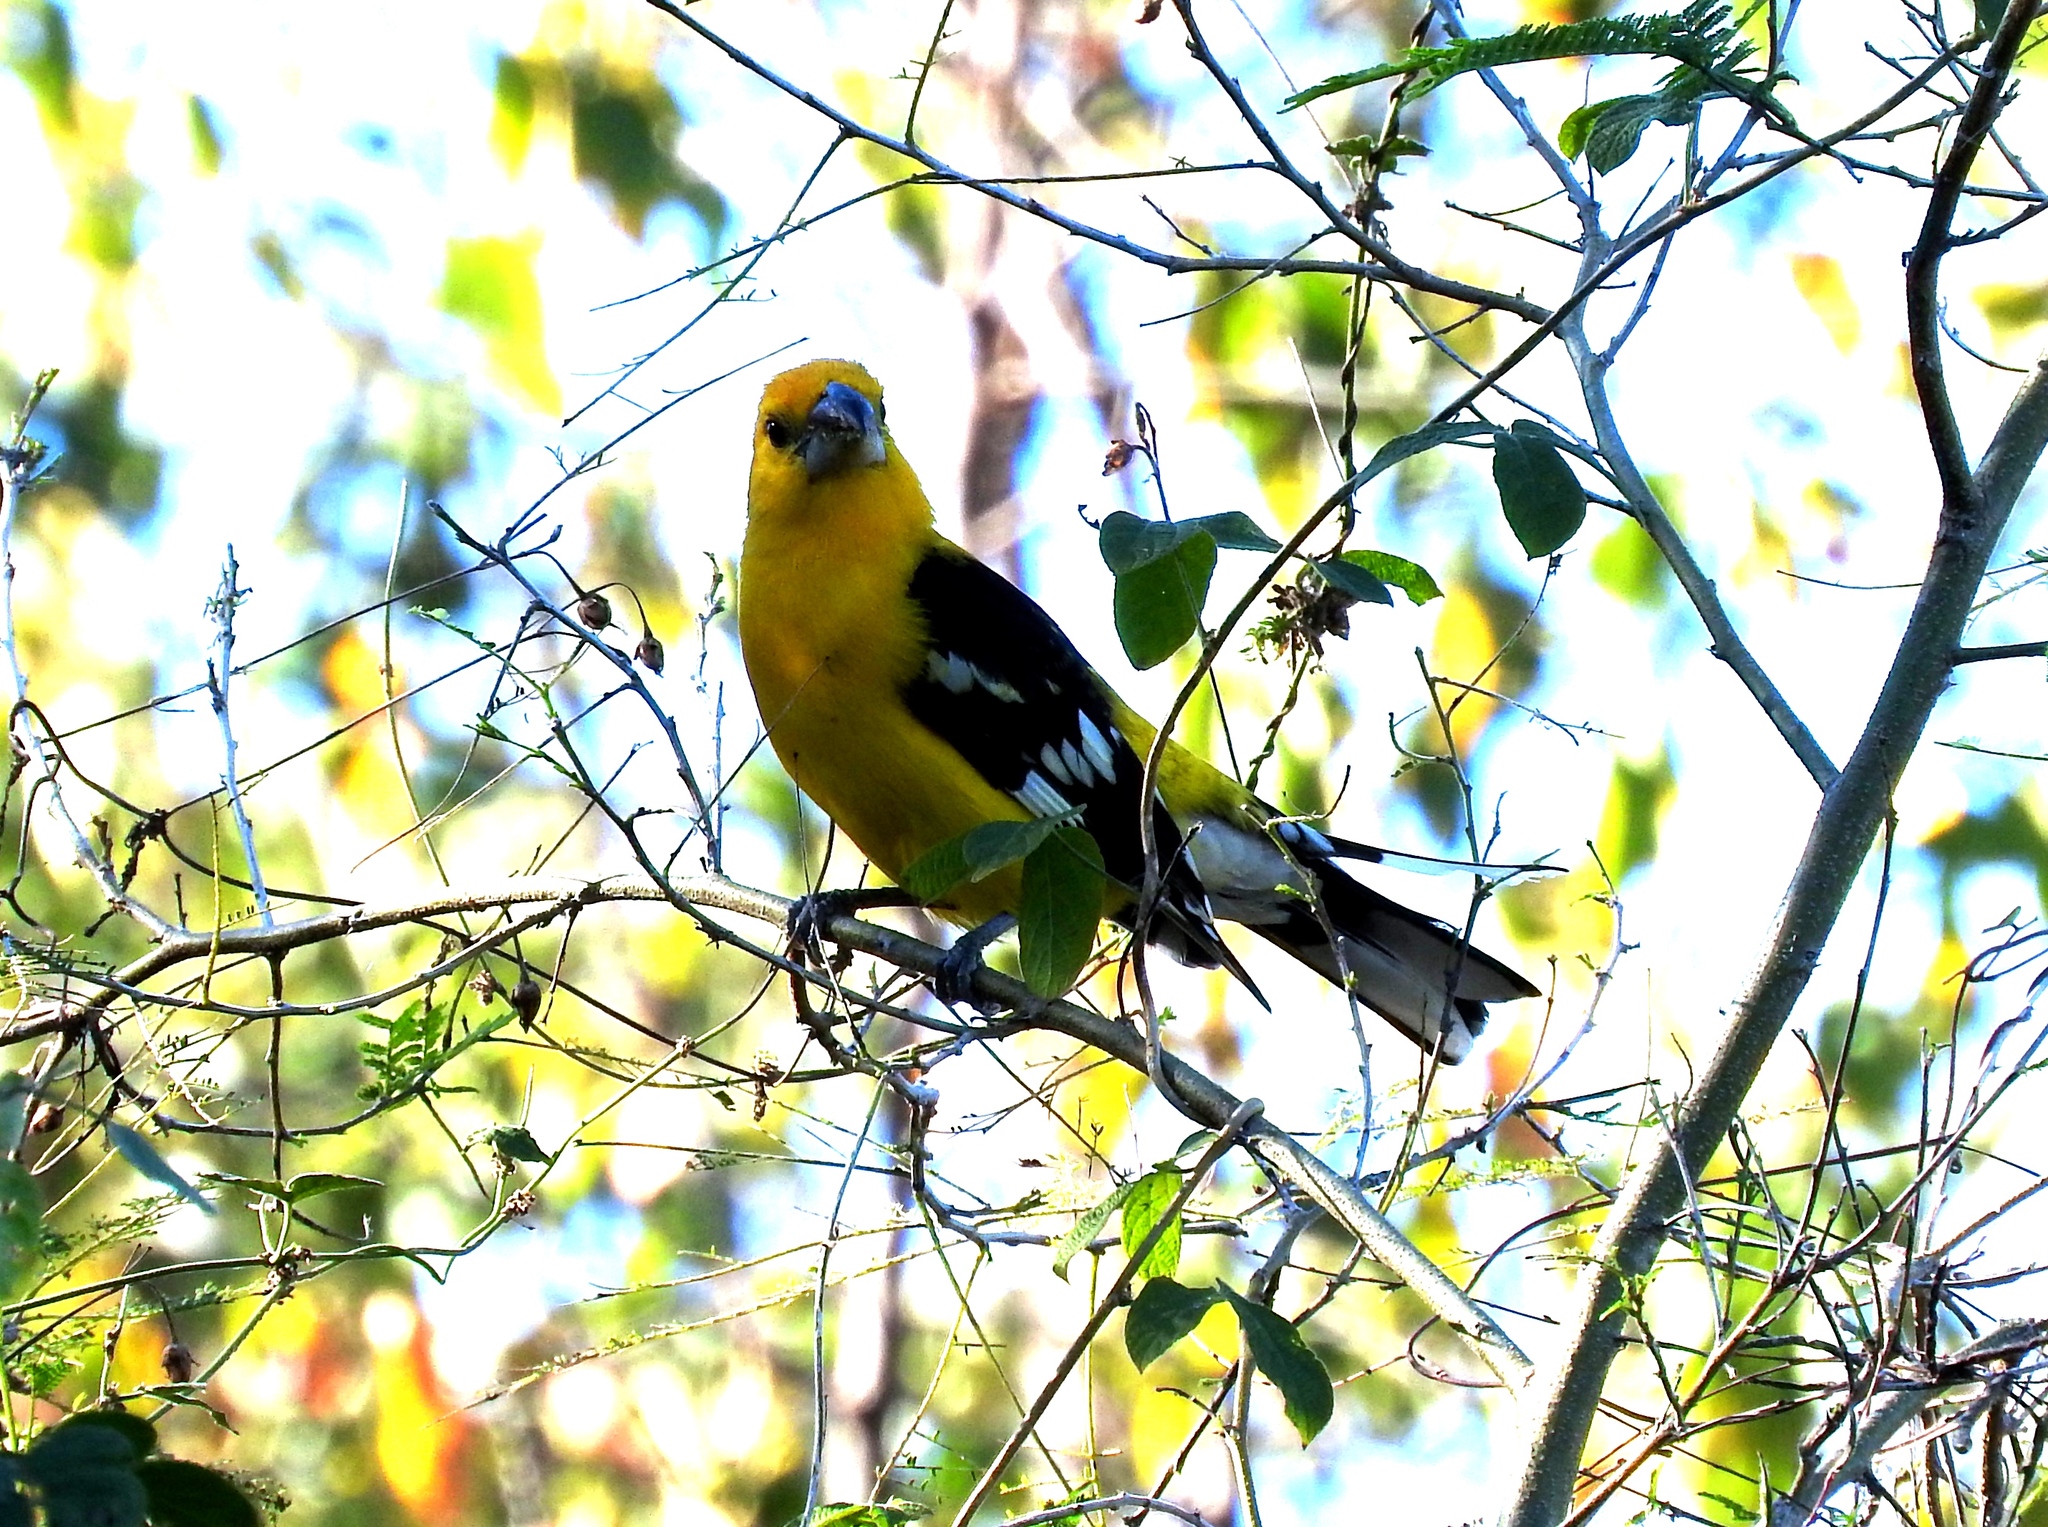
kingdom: Animalia
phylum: Chordata
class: Aves
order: Passeriformes
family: Cardinalidae
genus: Pheucticus
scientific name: Pheucticus chrysopeplus
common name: Yellow grosbeak
